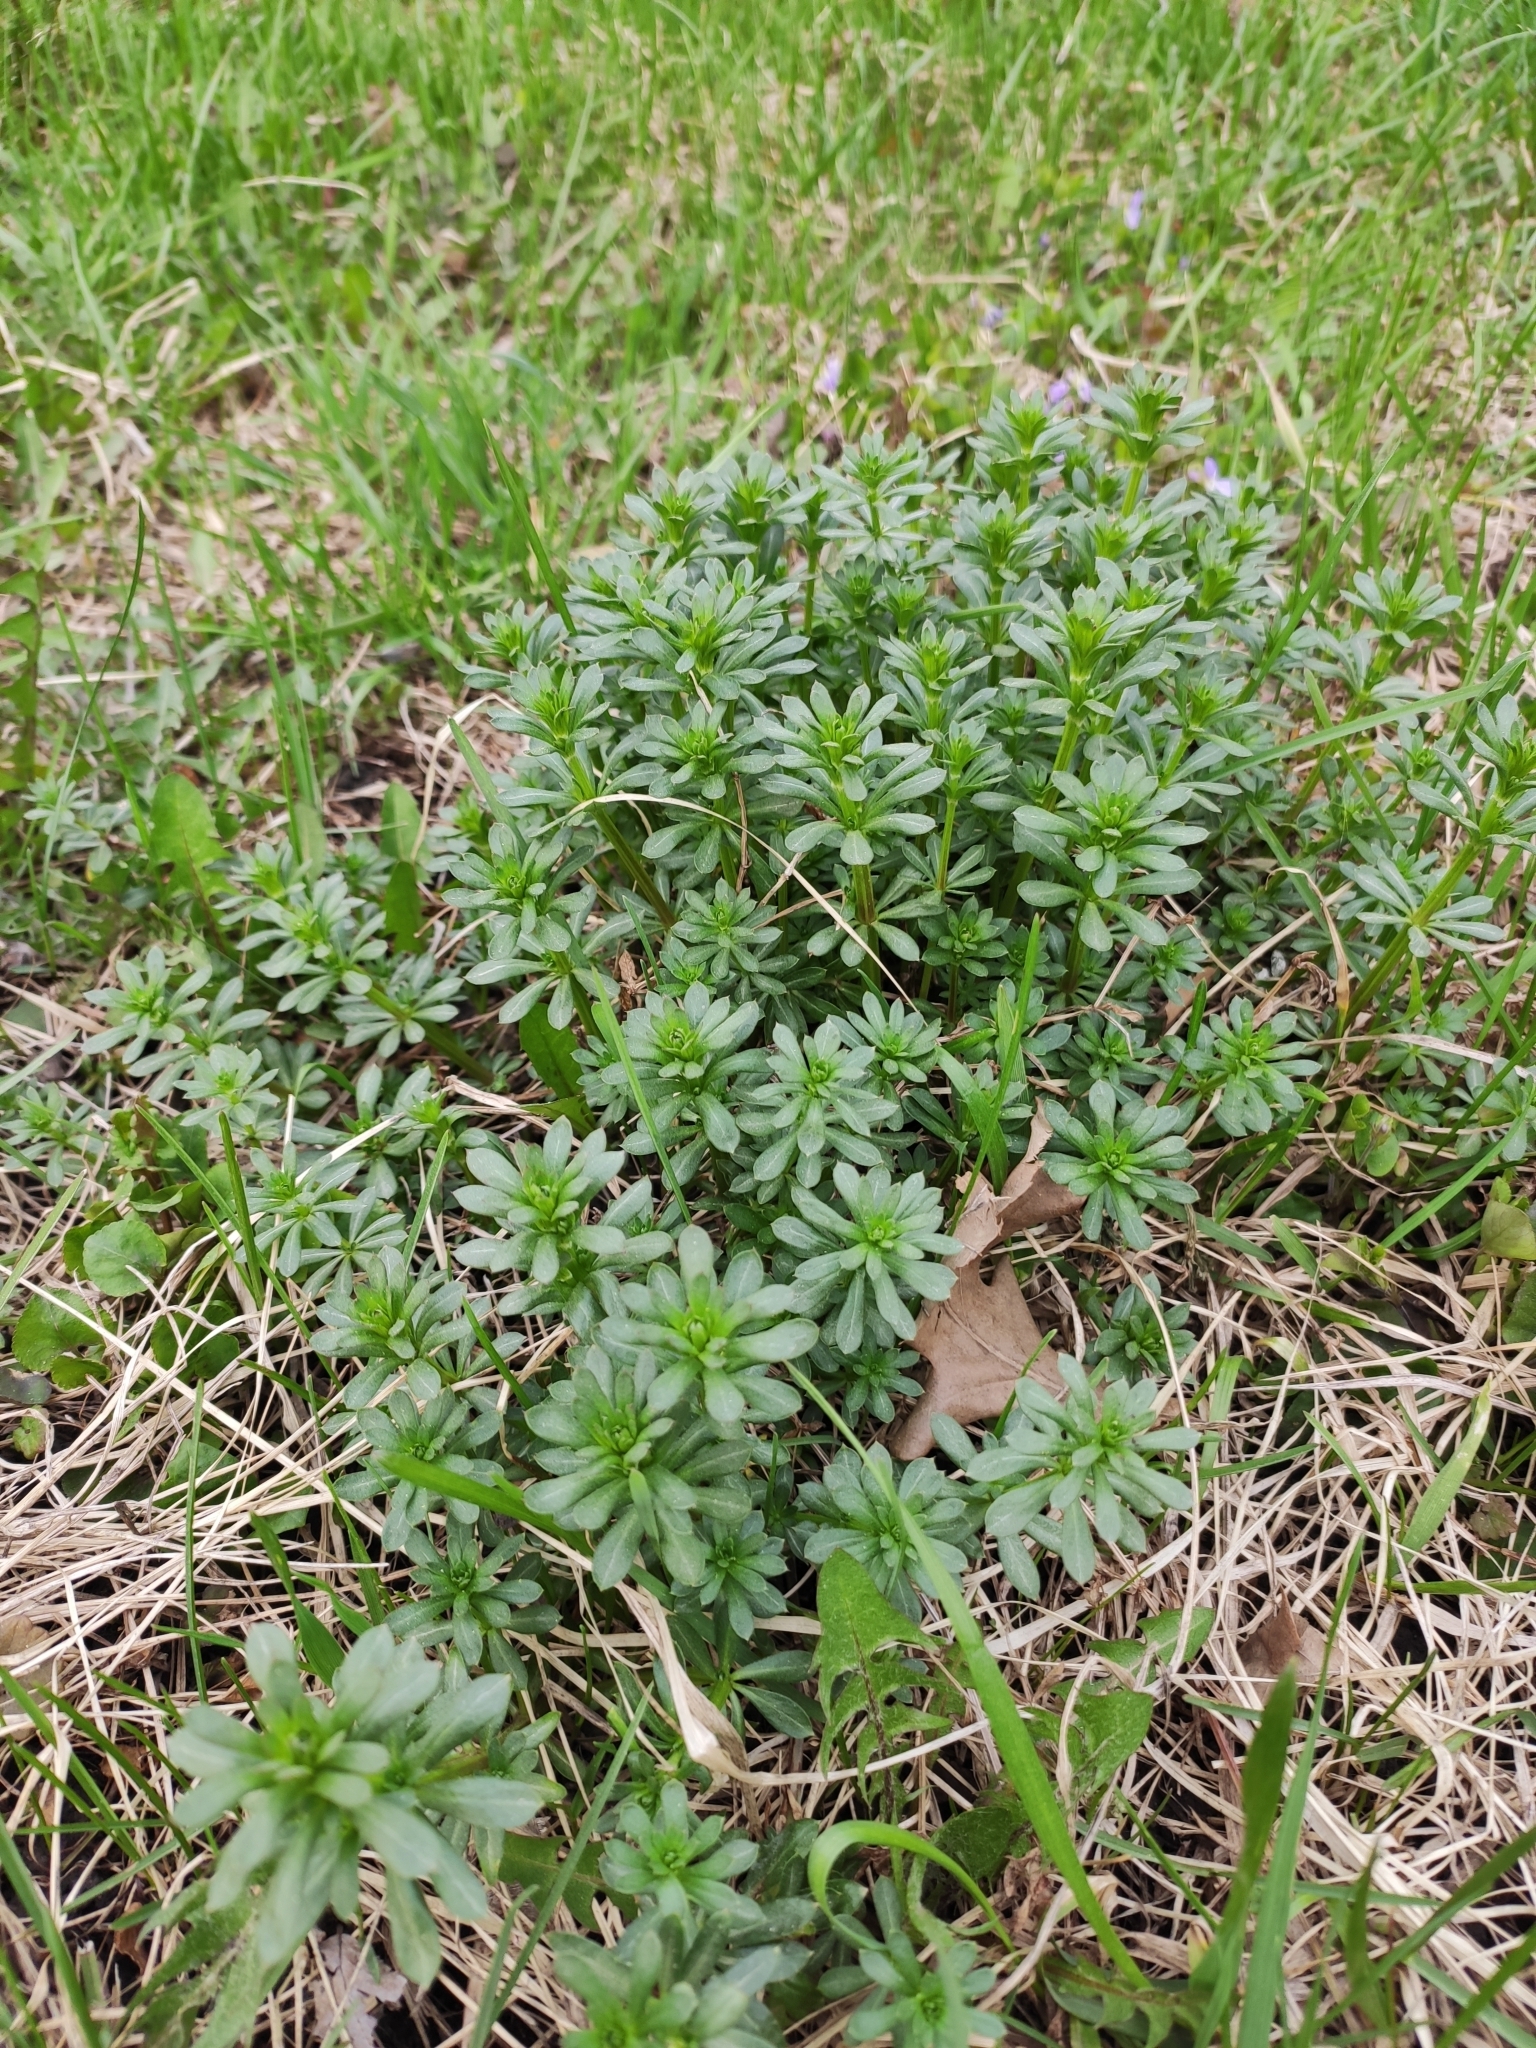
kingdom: Plantae
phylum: Tracheophyta
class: Magnoliopsida
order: Gentianales
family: Rubiaceae
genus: Galium
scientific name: Galium mollugo
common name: Hedge bedstraw
